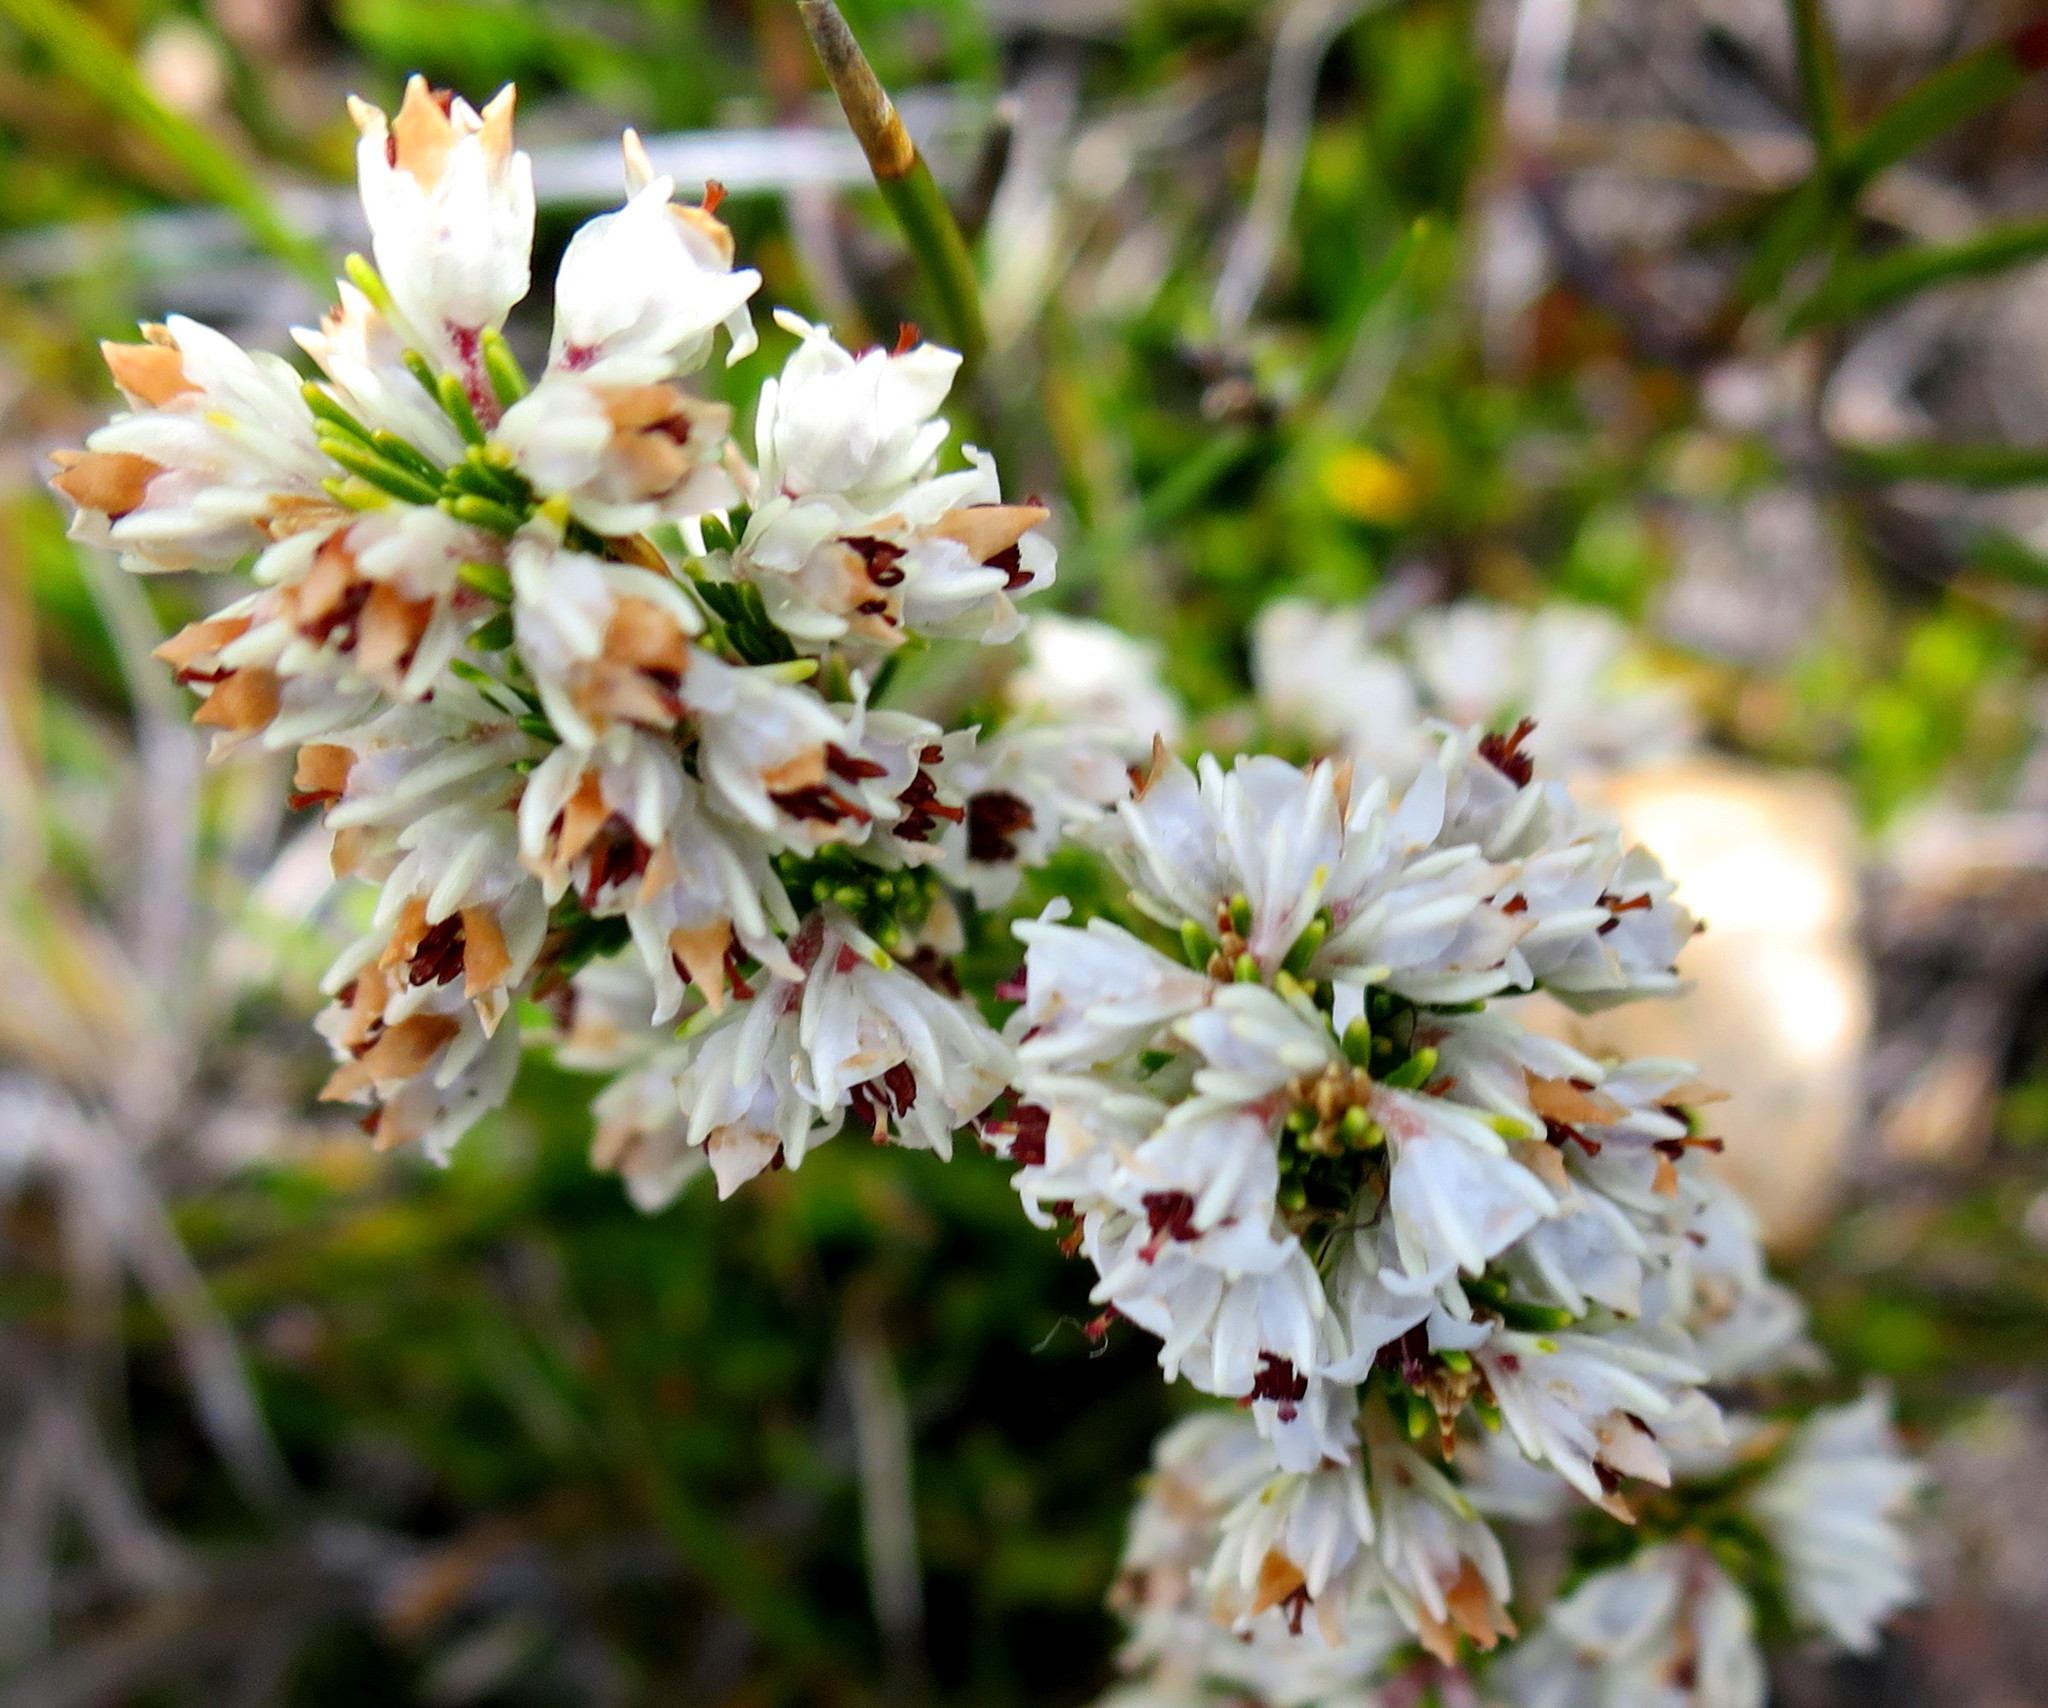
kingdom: Plantae
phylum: Tracheophyta
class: Magnoliopsida
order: Ericales
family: Ericaceae
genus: Erica
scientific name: Erica calycina
